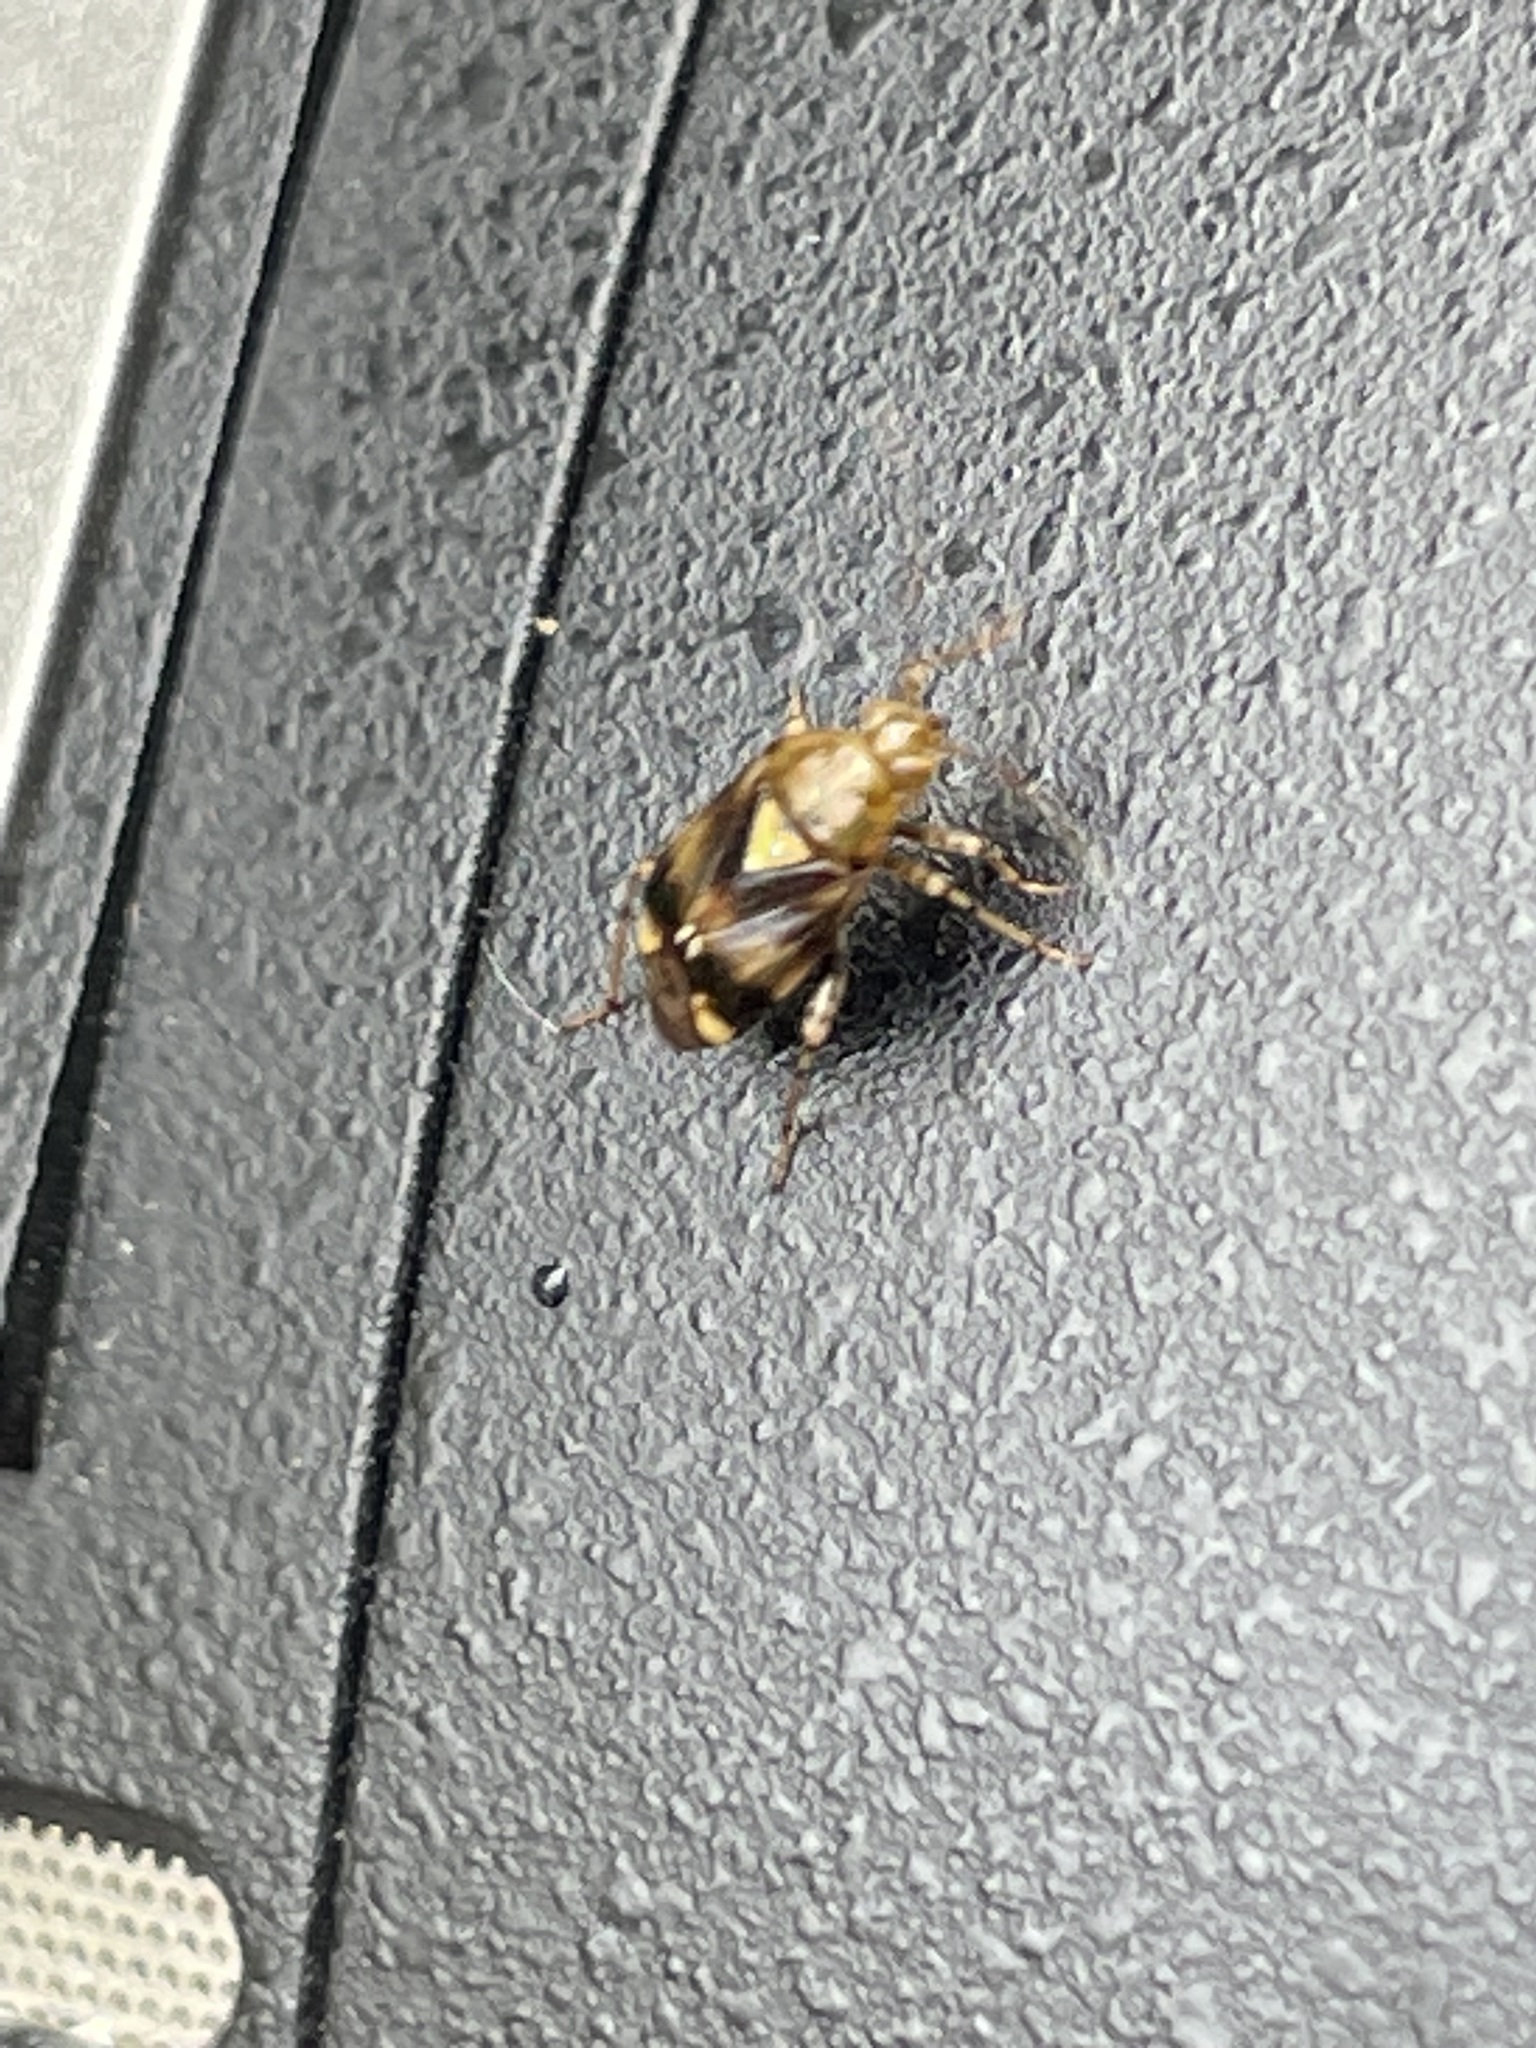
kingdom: Animalia
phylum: Arthropoda
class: Insecta
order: Hemiptera
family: Miridae
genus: Liocoris
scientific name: Liocoris tripustulatus
